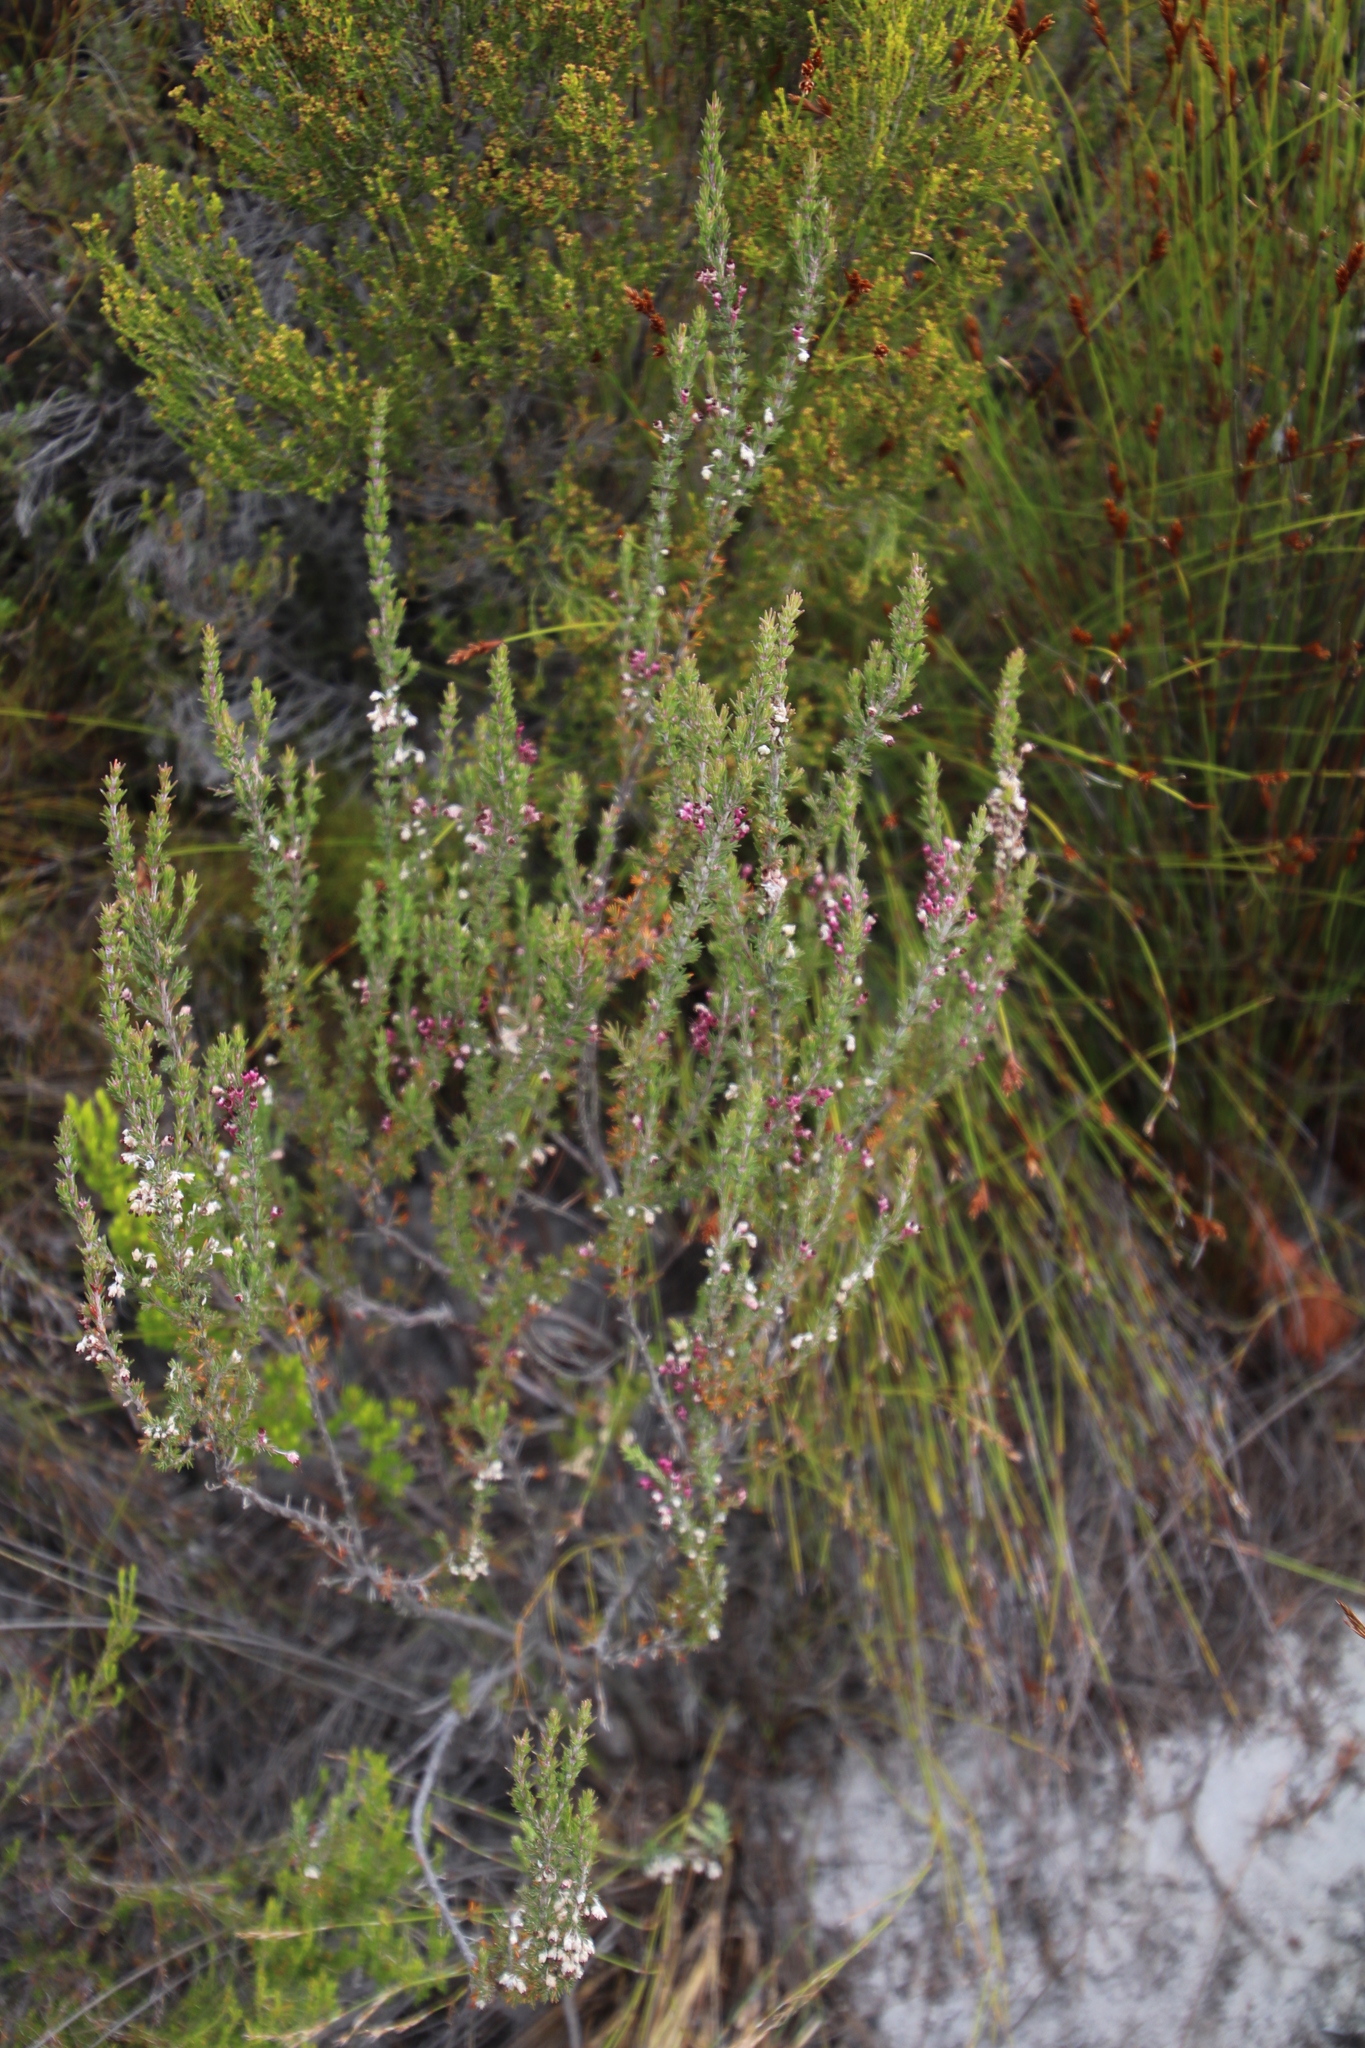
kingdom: Plantae
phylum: Tracheophyta
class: Magnoliopsida
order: Ericales
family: Ericaceae
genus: Erica
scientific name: Erica placentiflora
